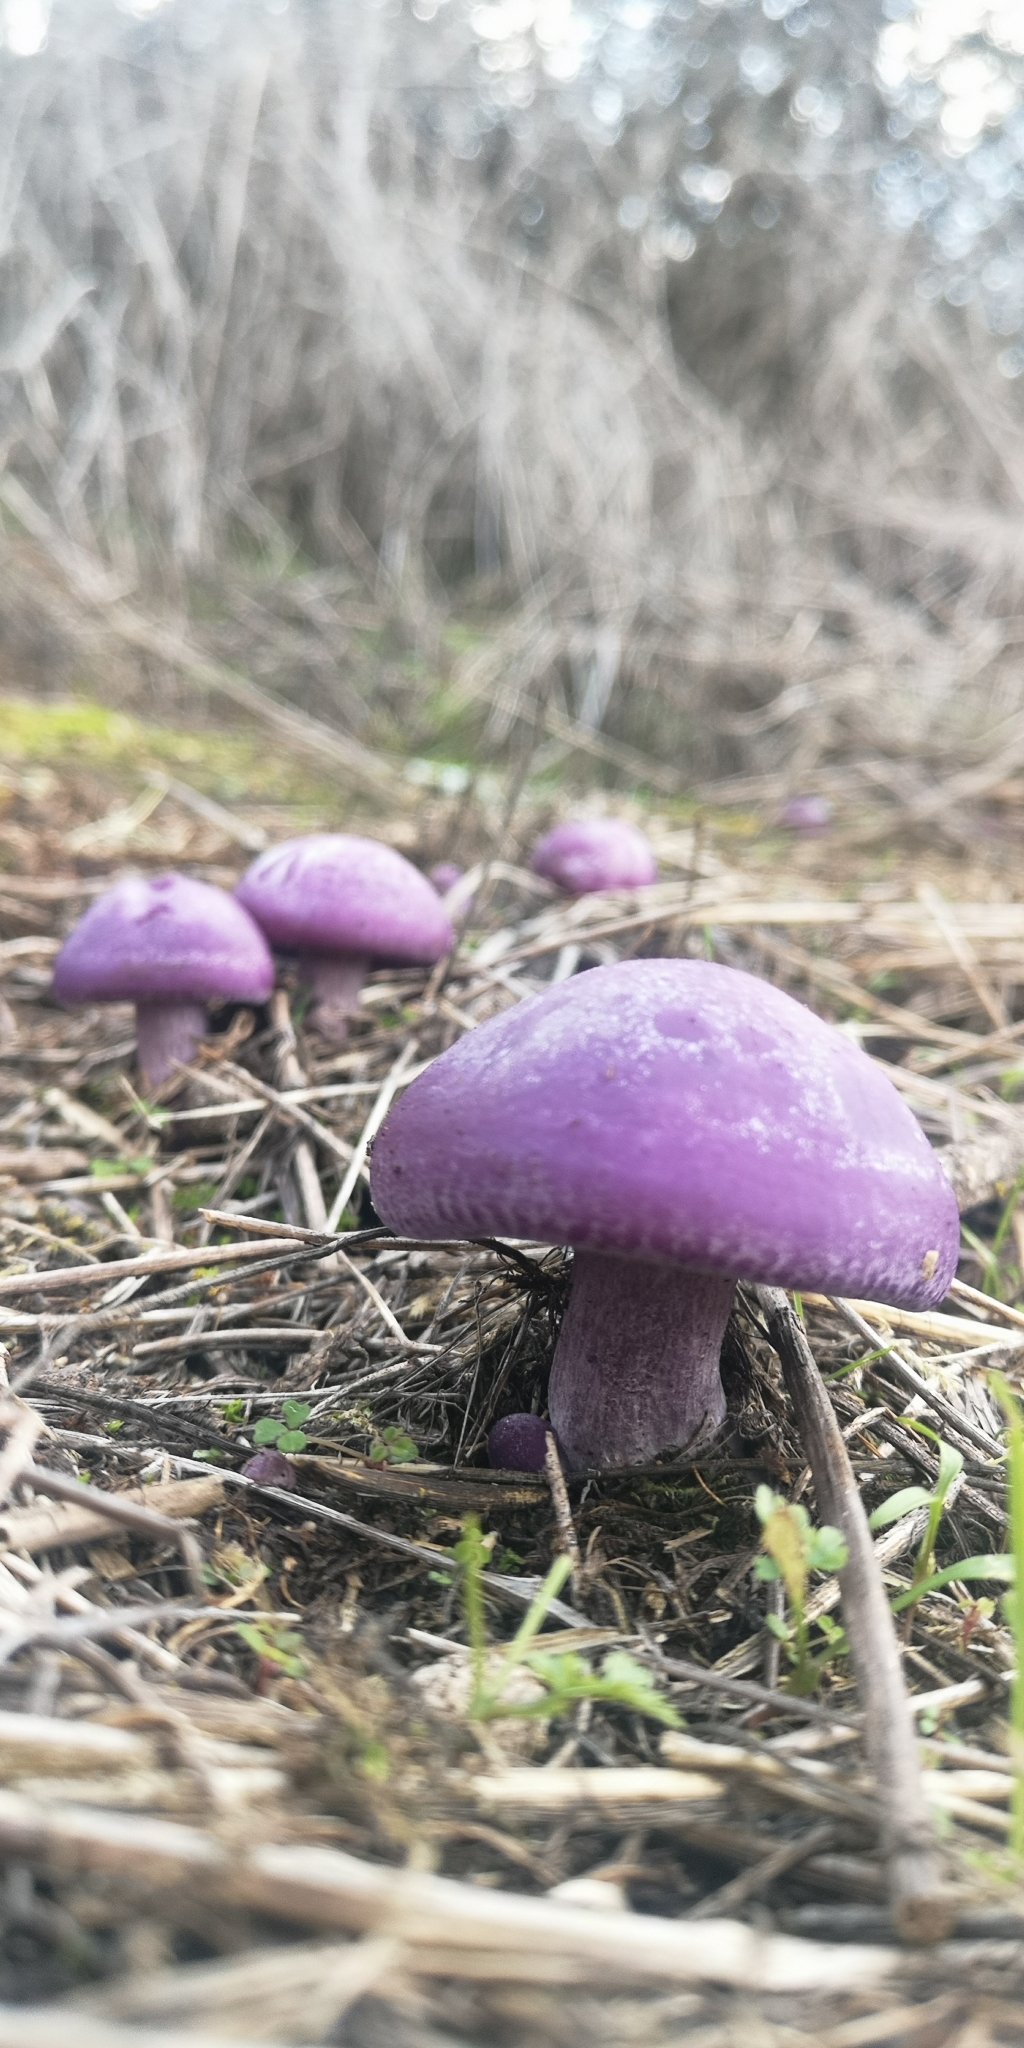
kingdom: Fungi
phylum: Basidiomycota
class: Agaricomycetes
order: Agaricales
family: Tricholomataceae
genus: Collybia
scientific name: Collybia
